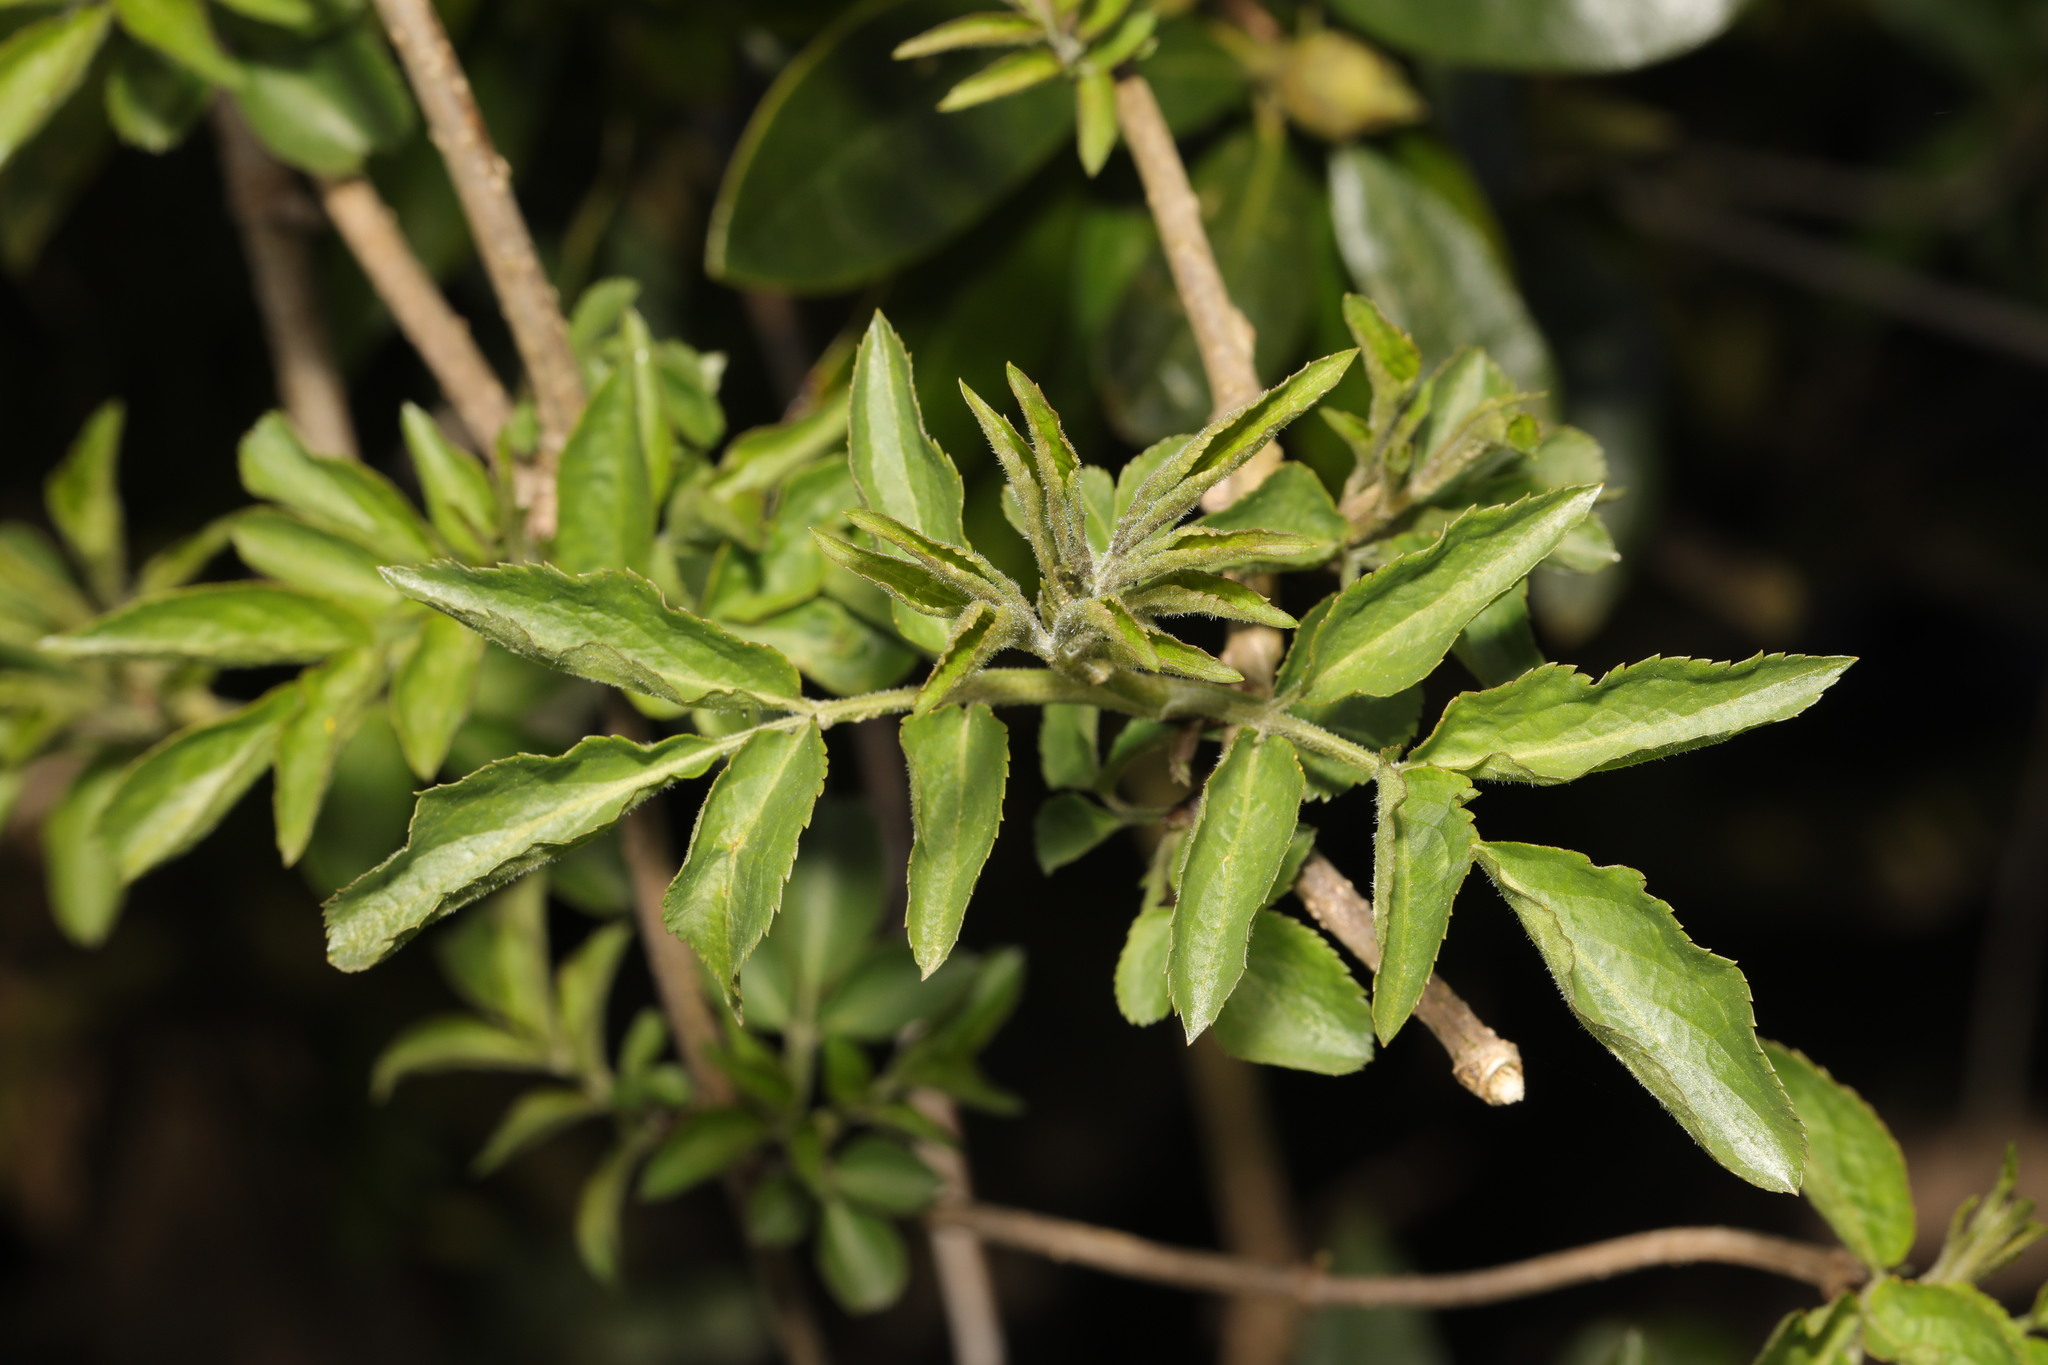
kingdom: Plantae
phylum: Tracheophyta
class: Magnoliopsida
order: Dipsacales
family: Viburnaceae
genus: Sambucus
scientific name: Sambucus nigra
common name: Elder
